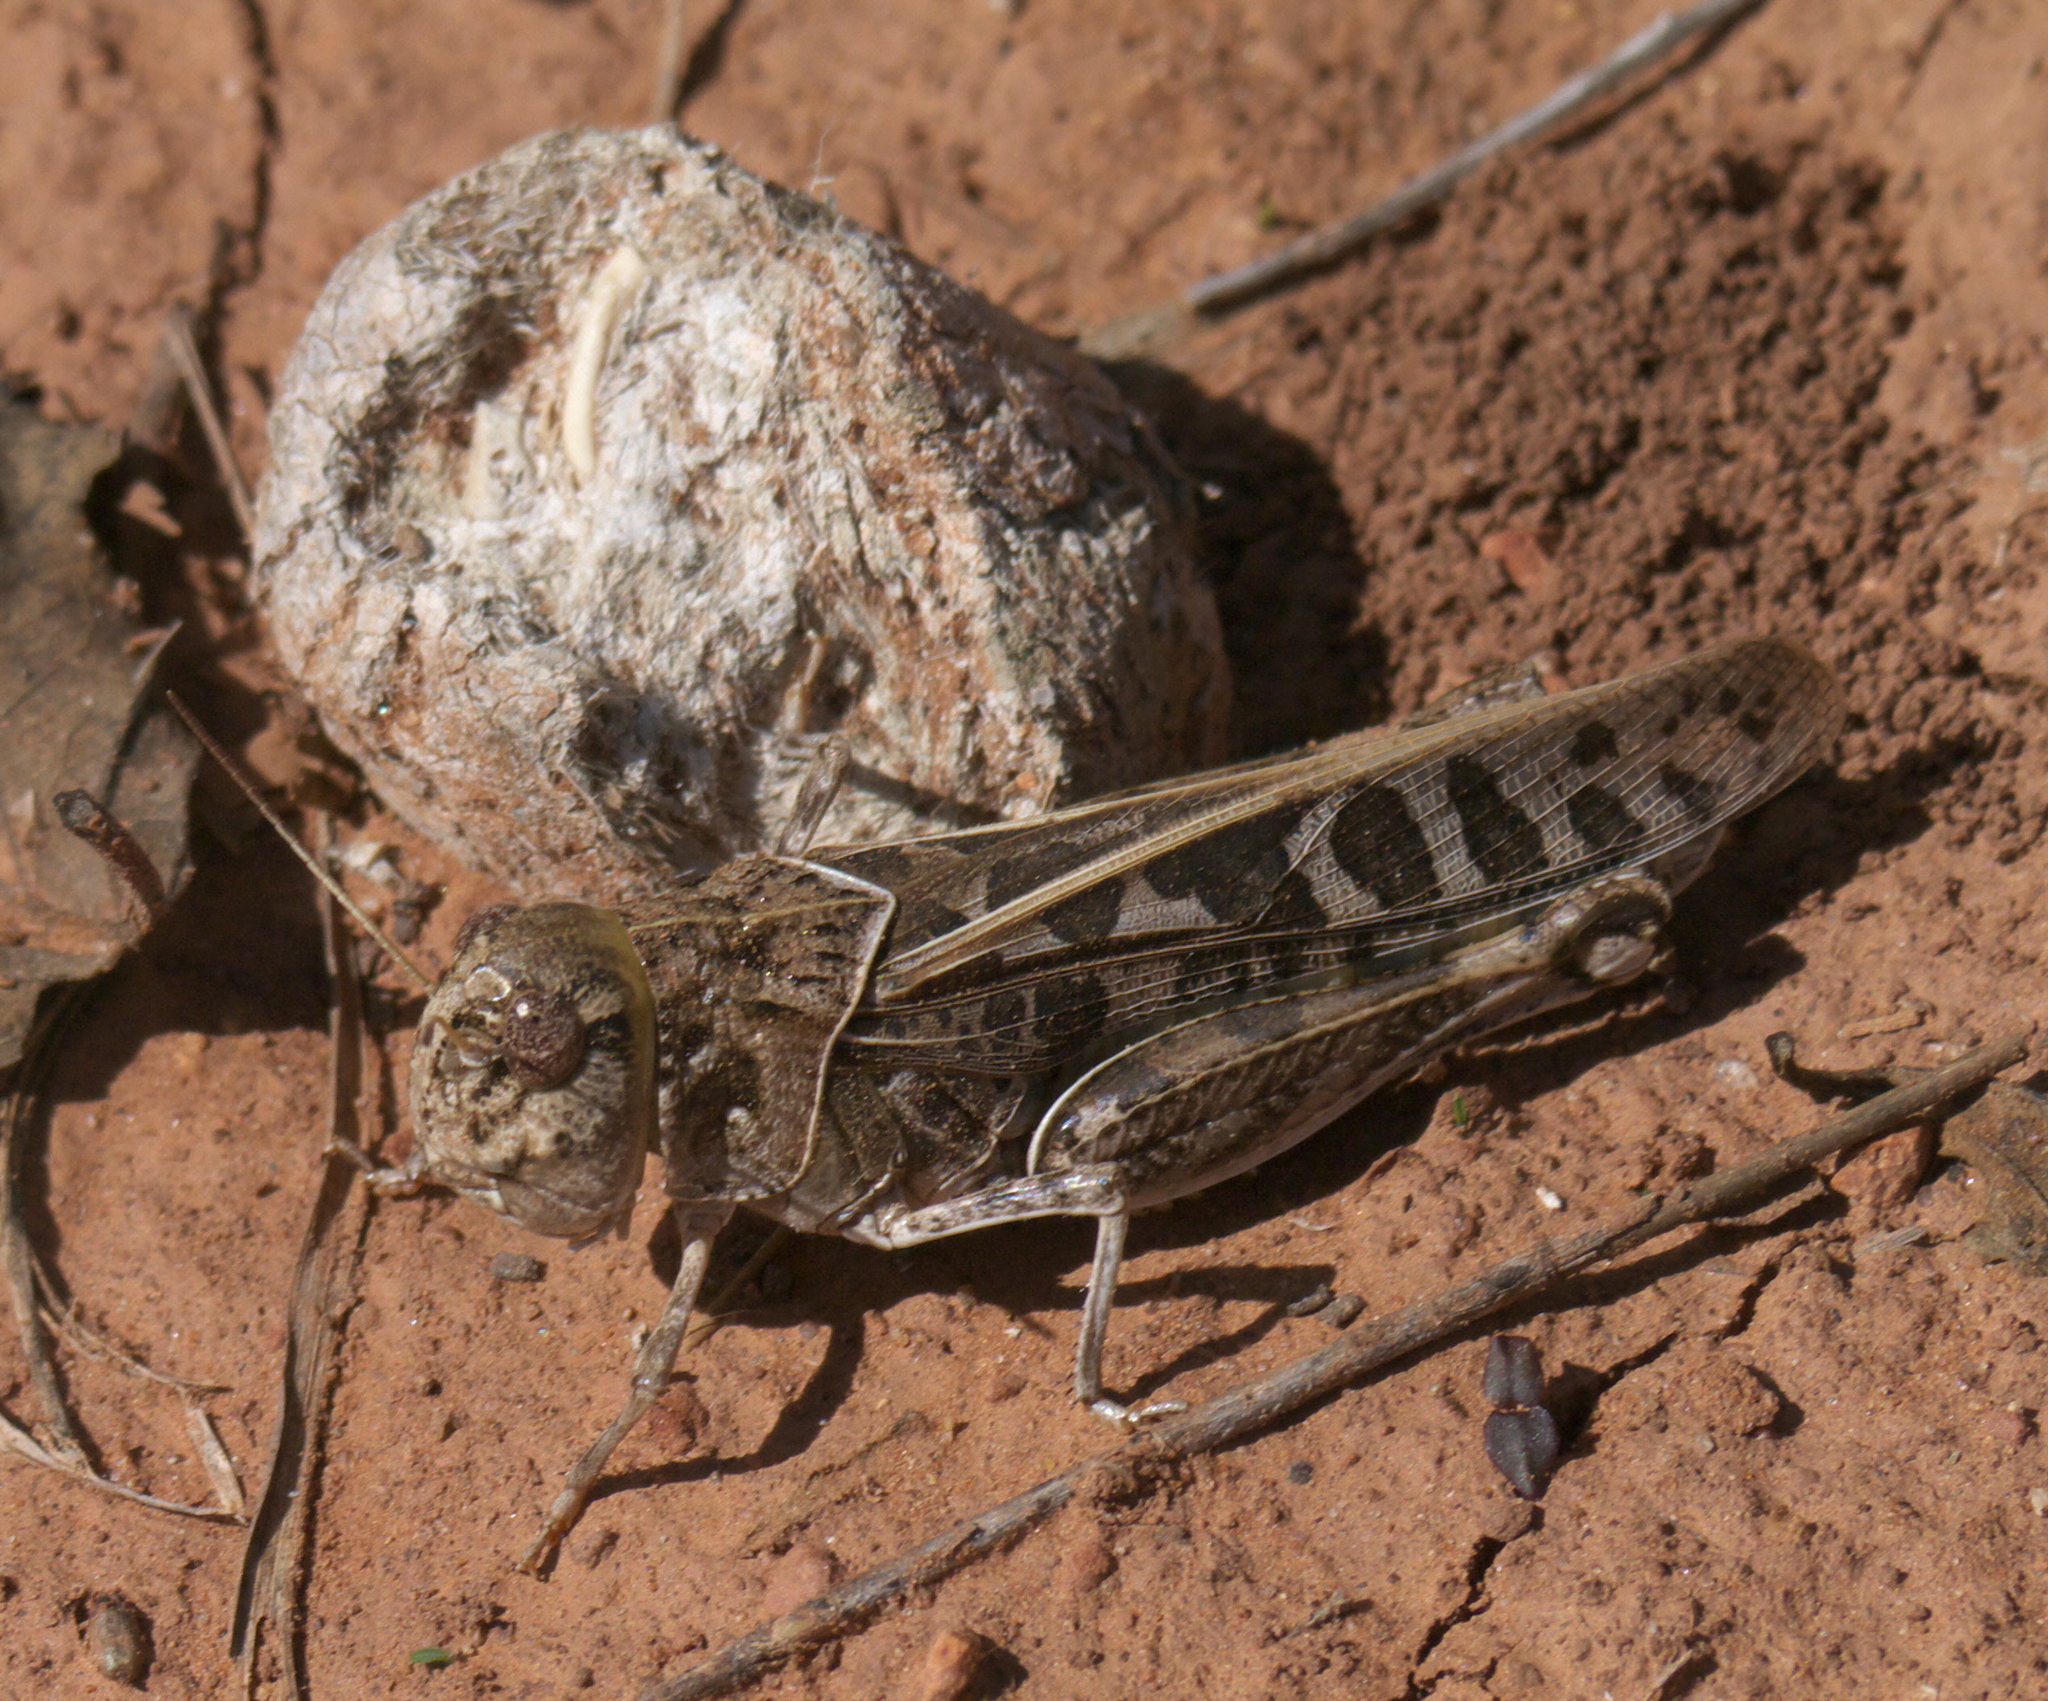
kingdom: Animalia
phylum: Arthropoda
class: Insecta
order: Orthoptera
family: Acrididae
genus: Hippiscus
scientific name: Hippiscus ocelote
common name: Wrinkled grasshopper
